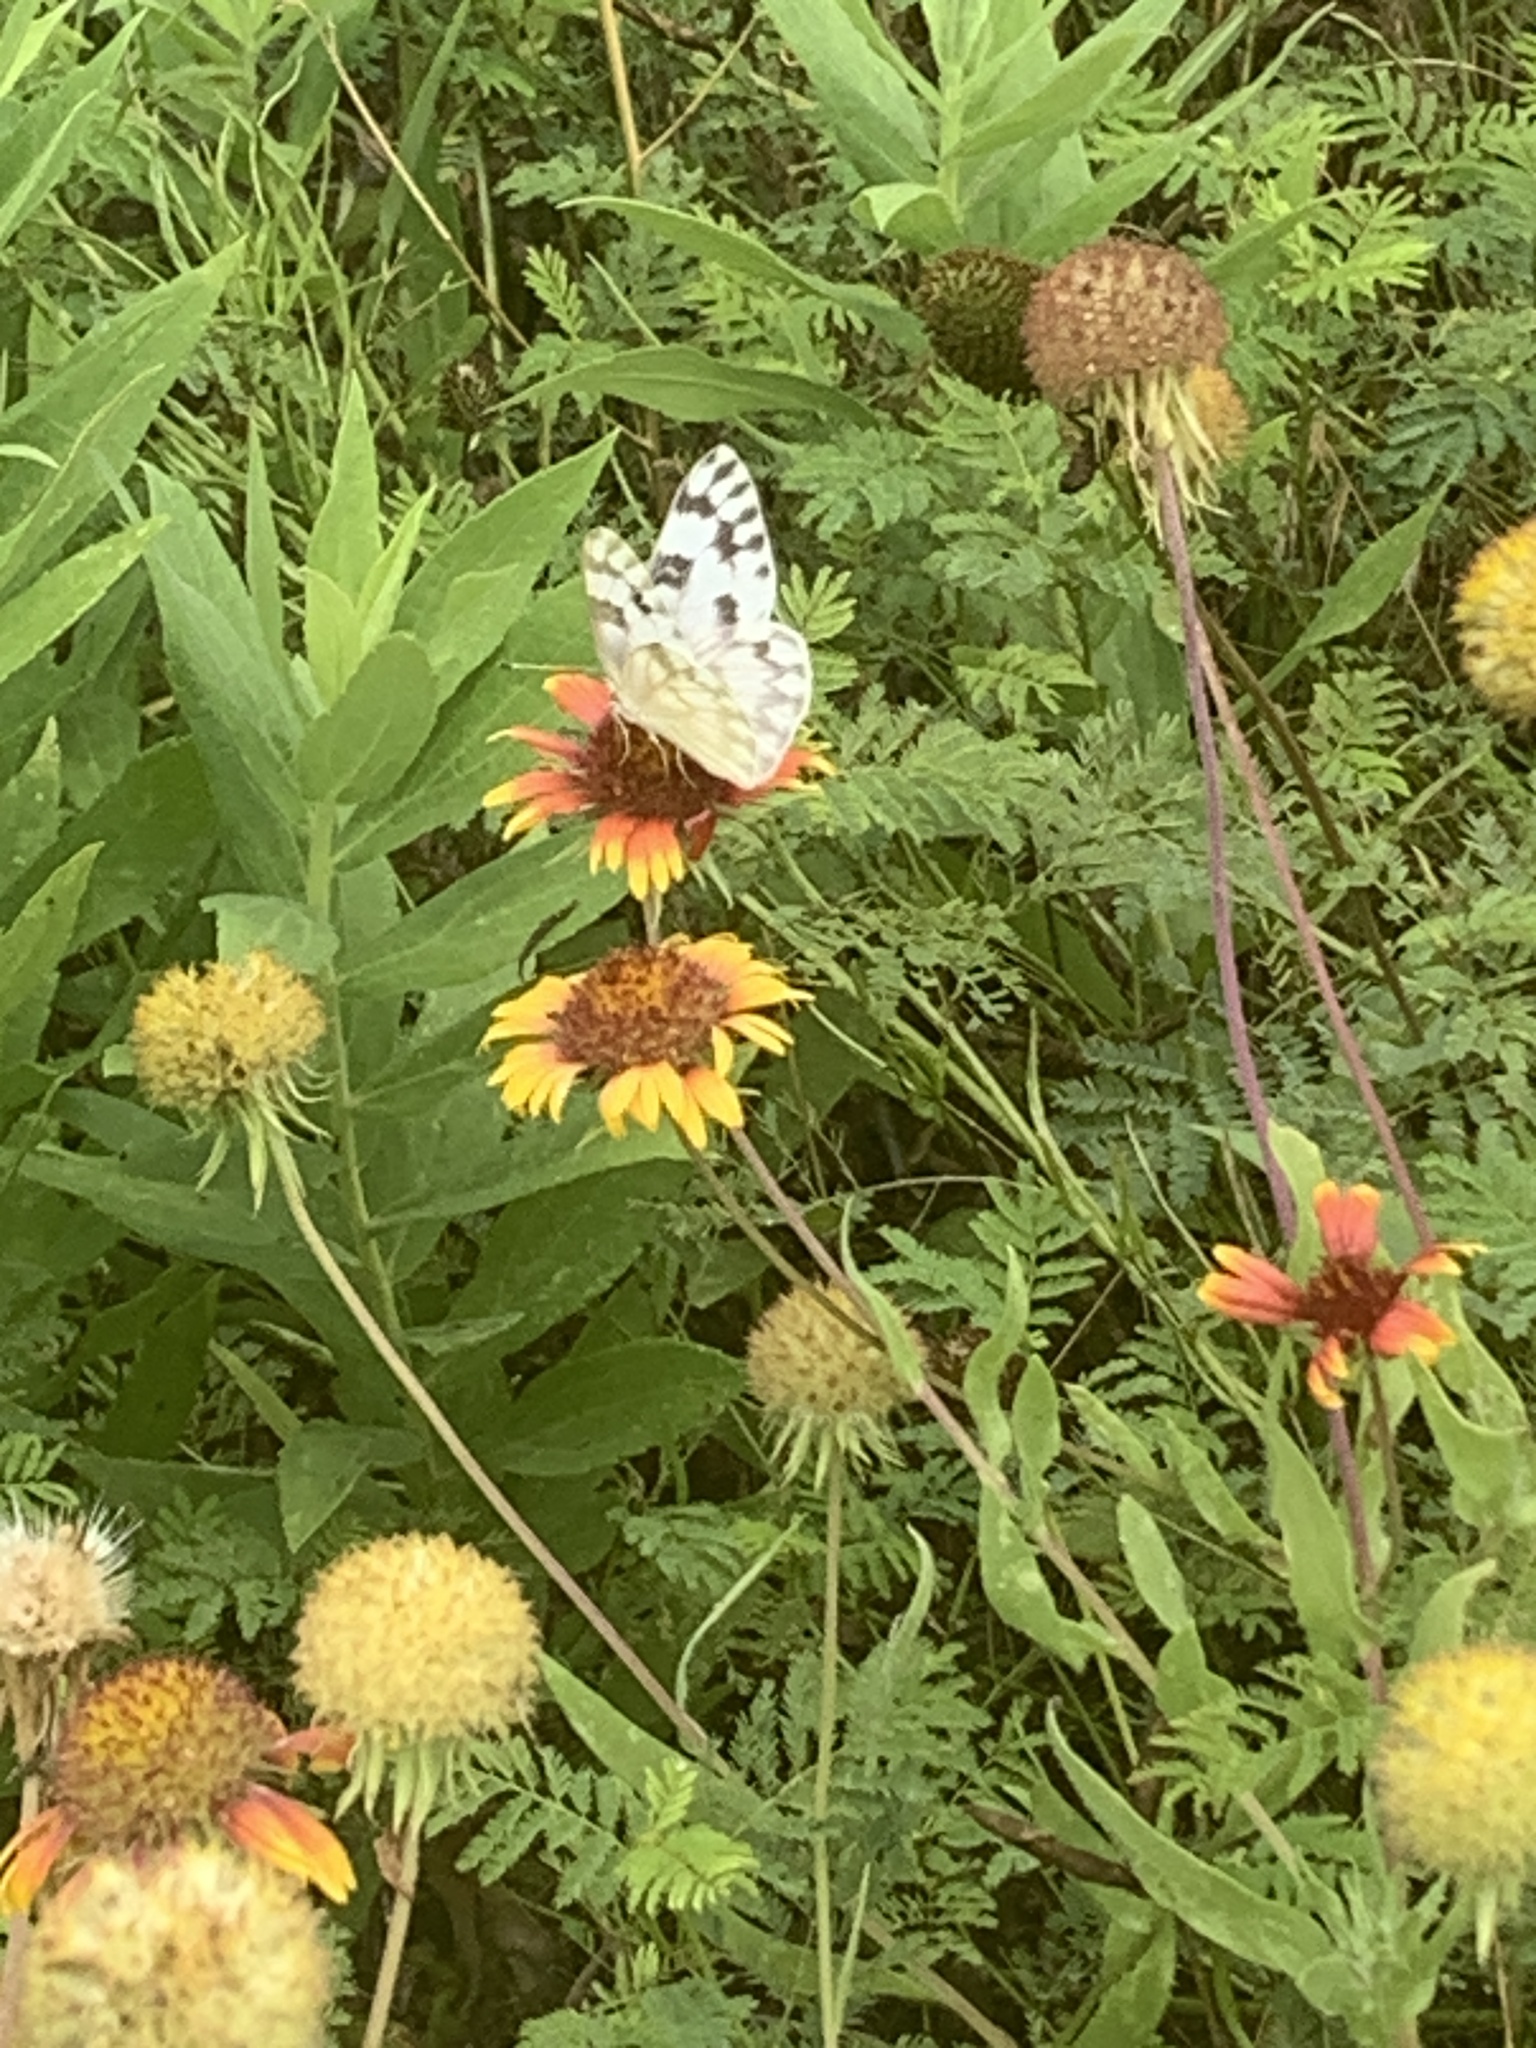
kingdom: Animalia
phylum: Arthropoda
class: Insecta
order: Lepidoptera
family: Pieridae
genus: Pontia
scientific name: Pontia protodice
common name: Checkered white
